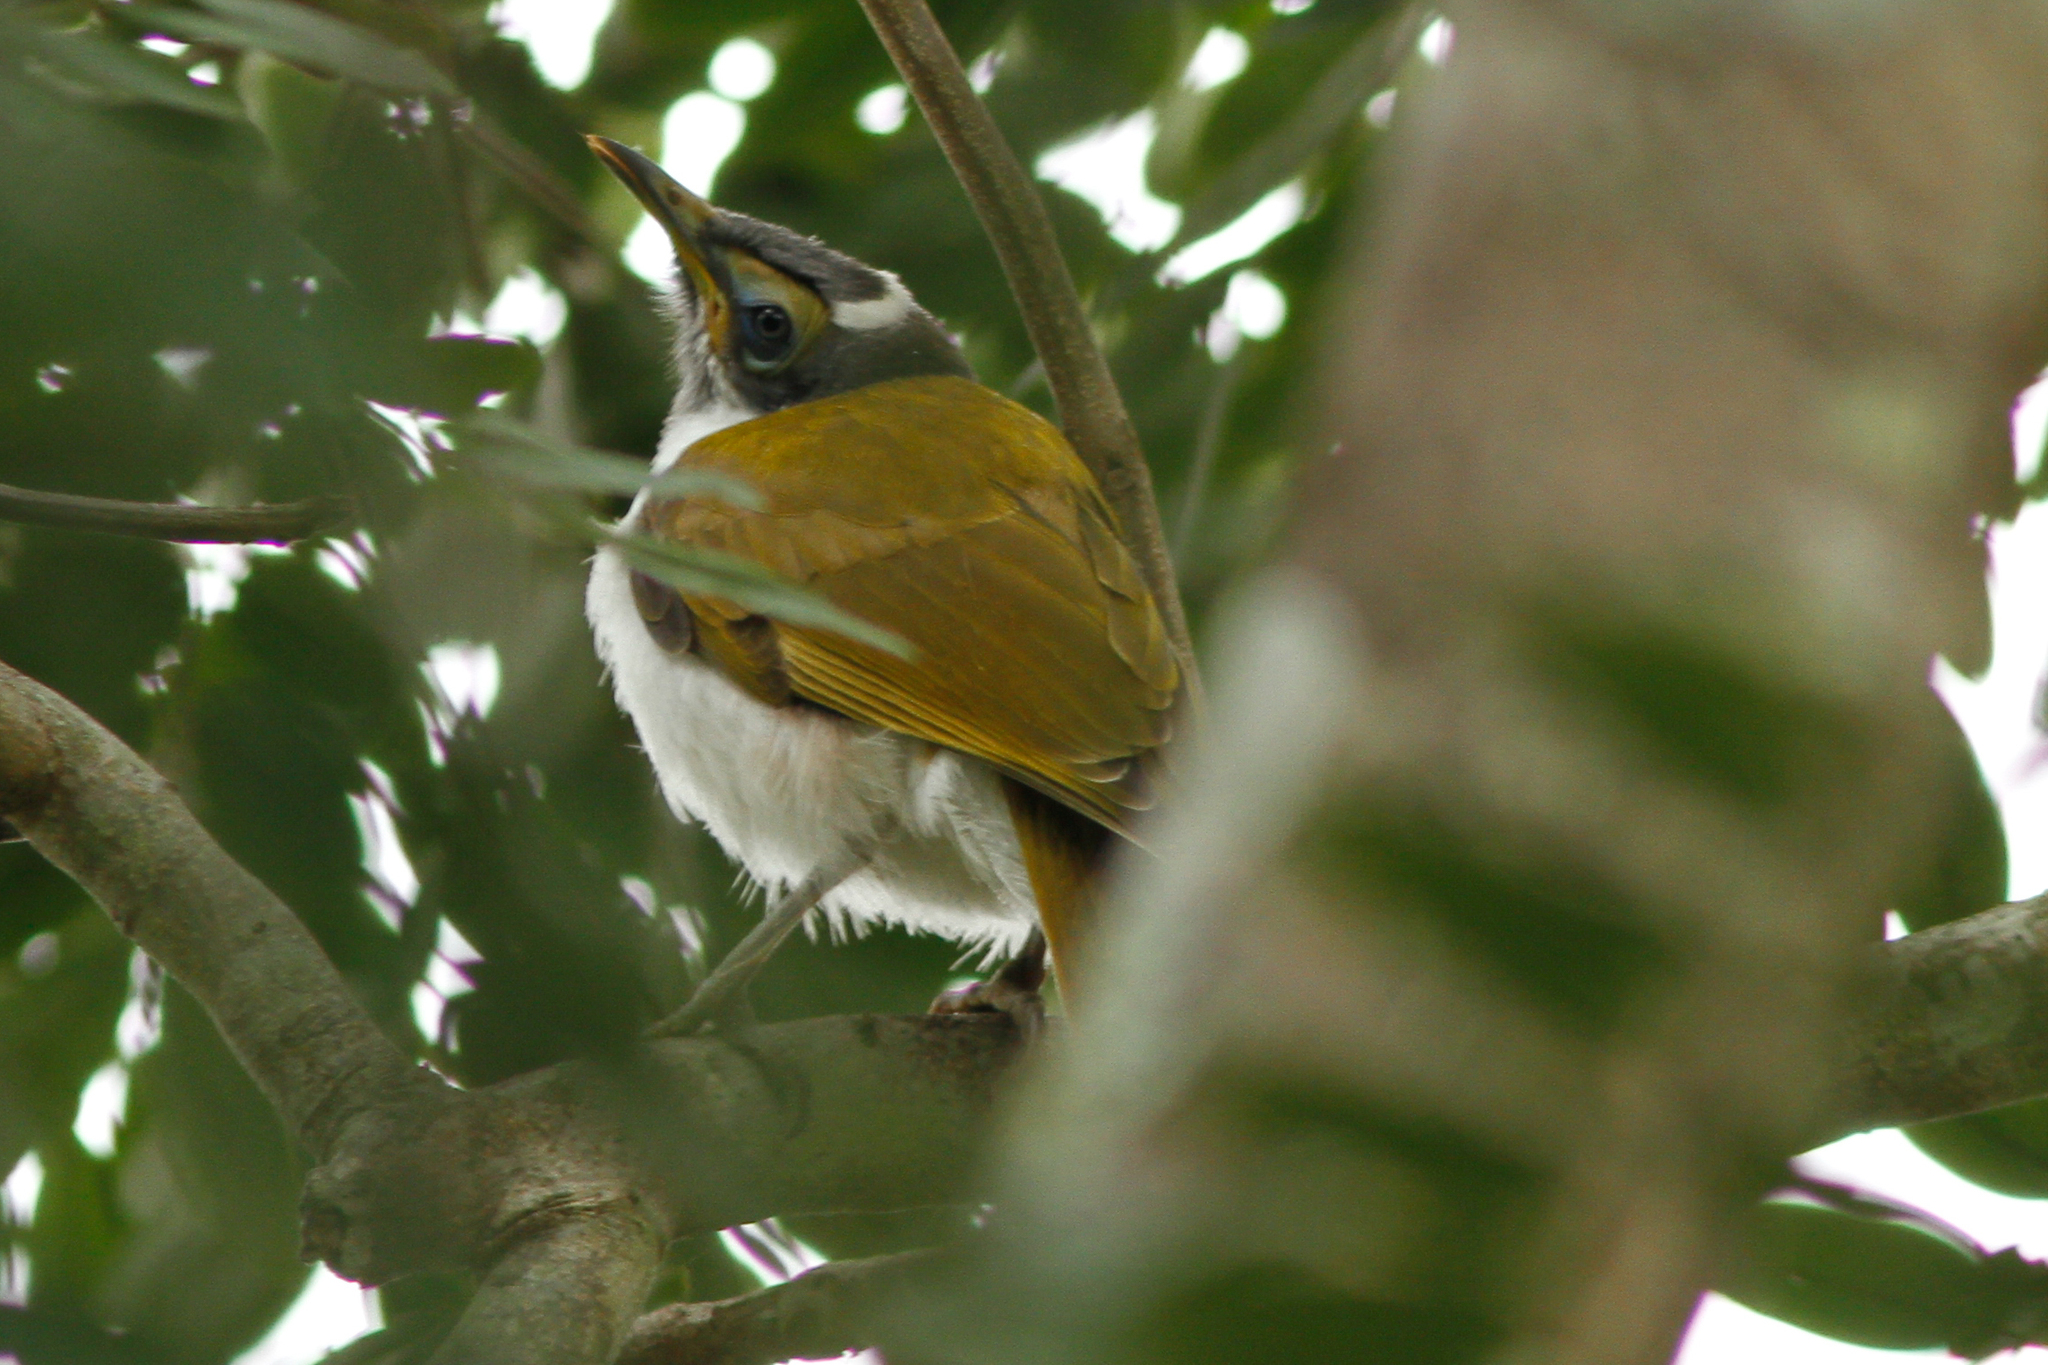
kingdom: Animalia
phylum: Chordata
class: Aves
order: Passeriformes
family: Meliphagidae
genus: Entomyzon
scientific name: Entomyzon cyanotis
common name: Blue-faced honeyeater
